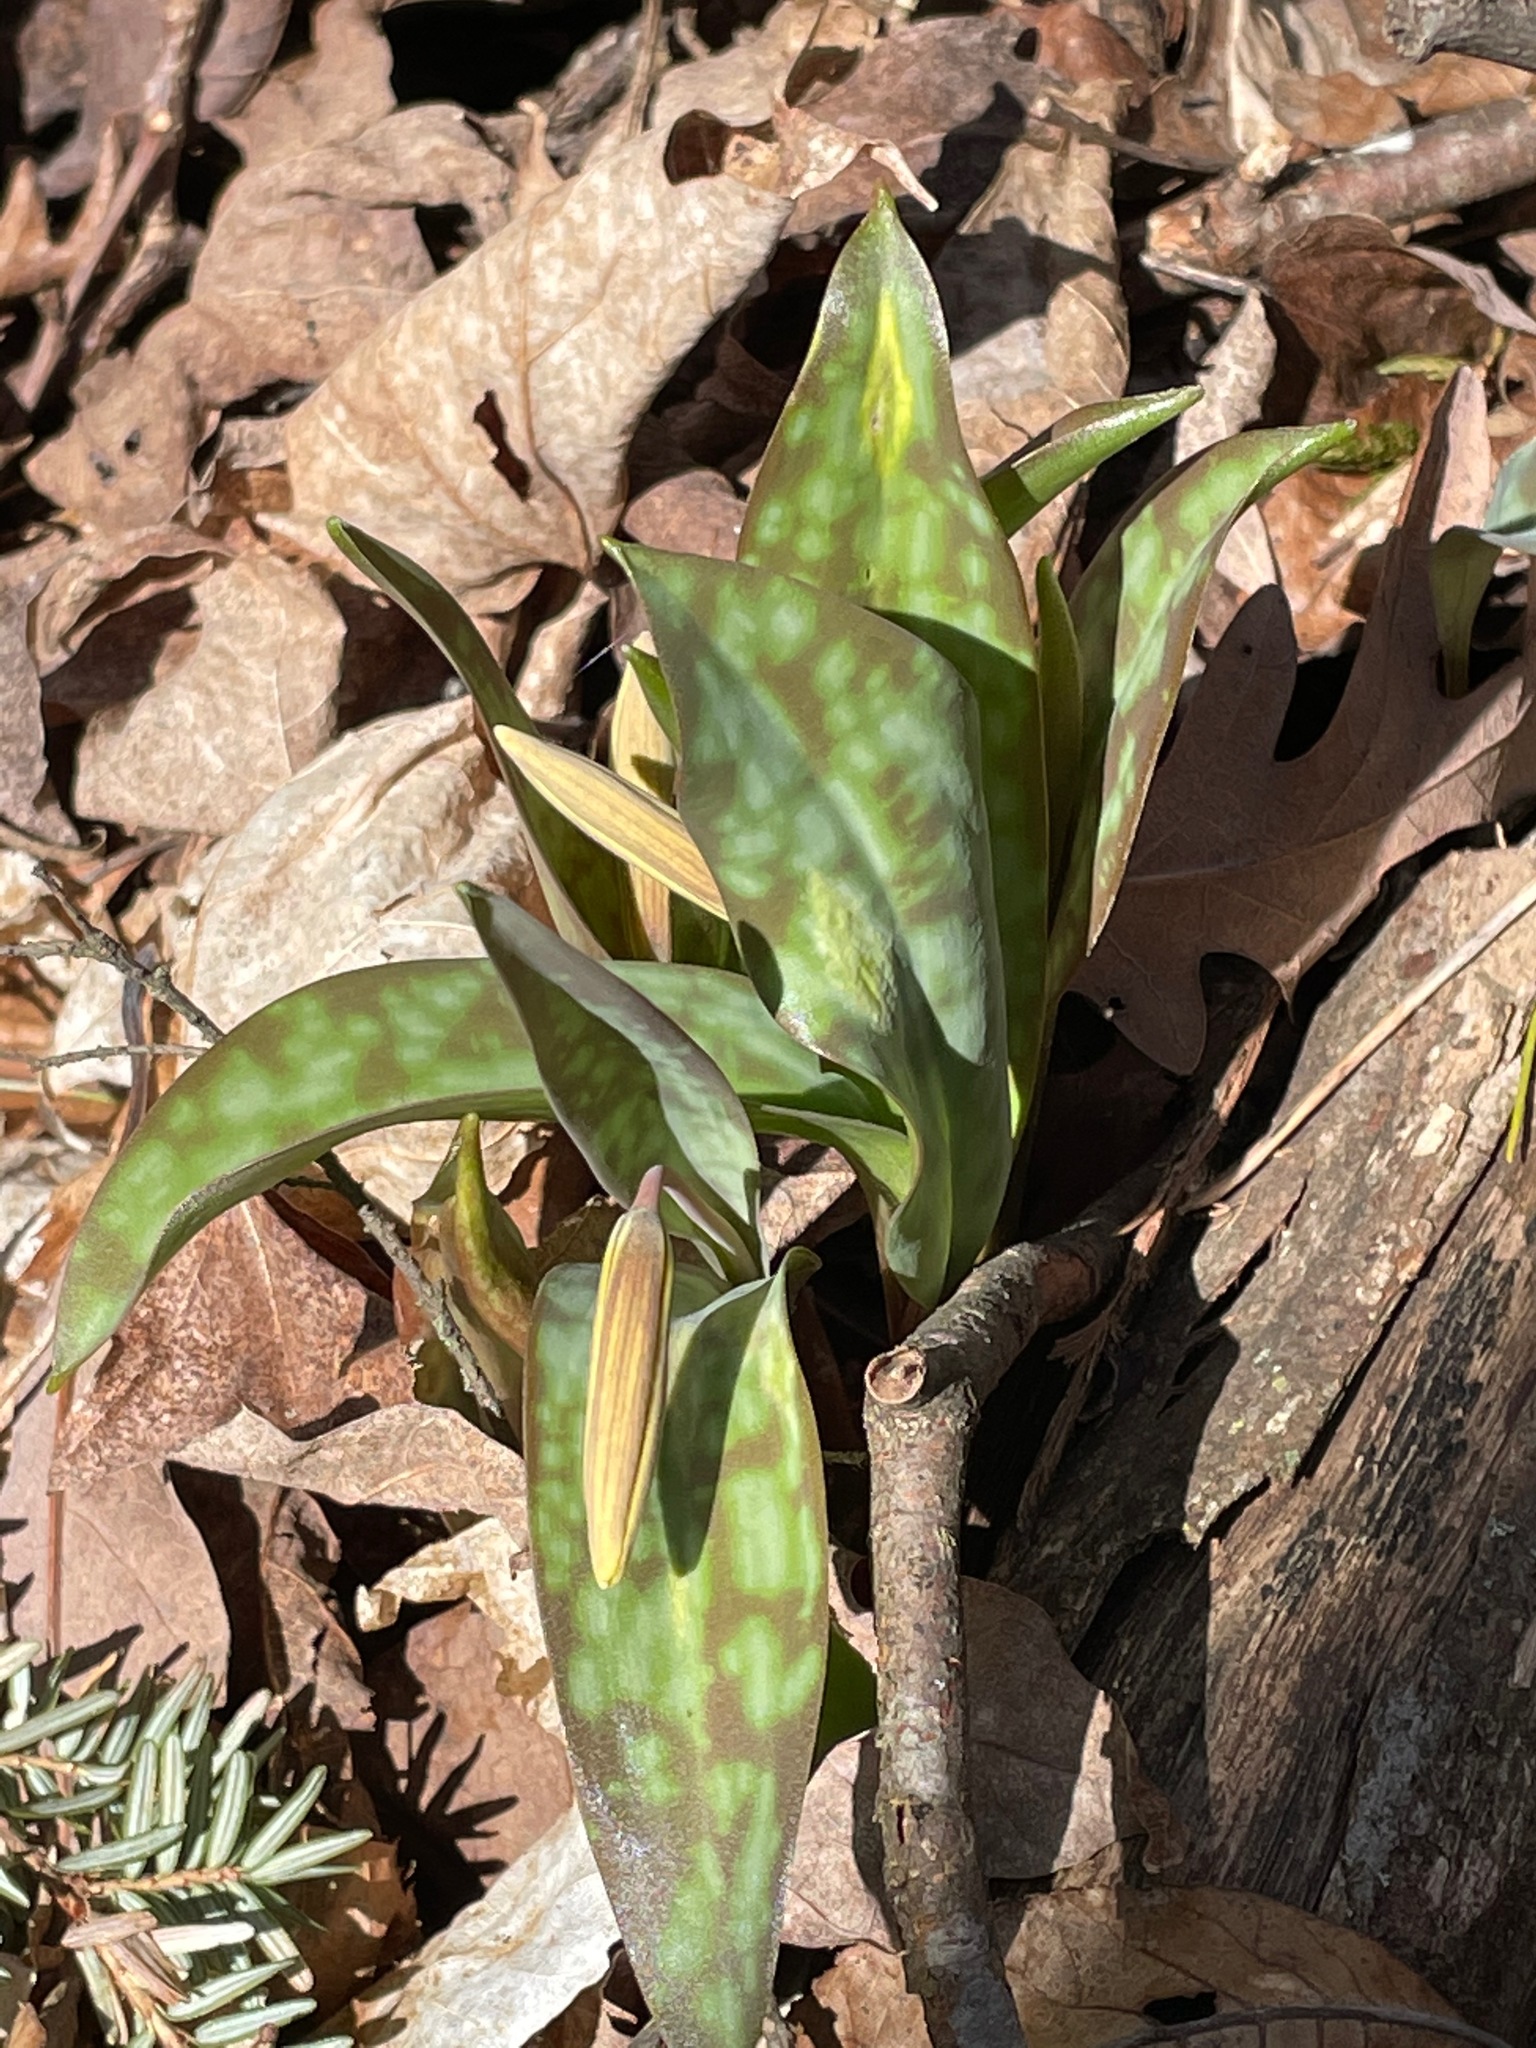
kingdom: Plantae
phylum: Tracheophyta
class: Liliopsida
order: Liliales
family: Liliaceae
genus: Erythronium
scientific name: Erythronium americanum
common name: Yellow adder's-tongue
